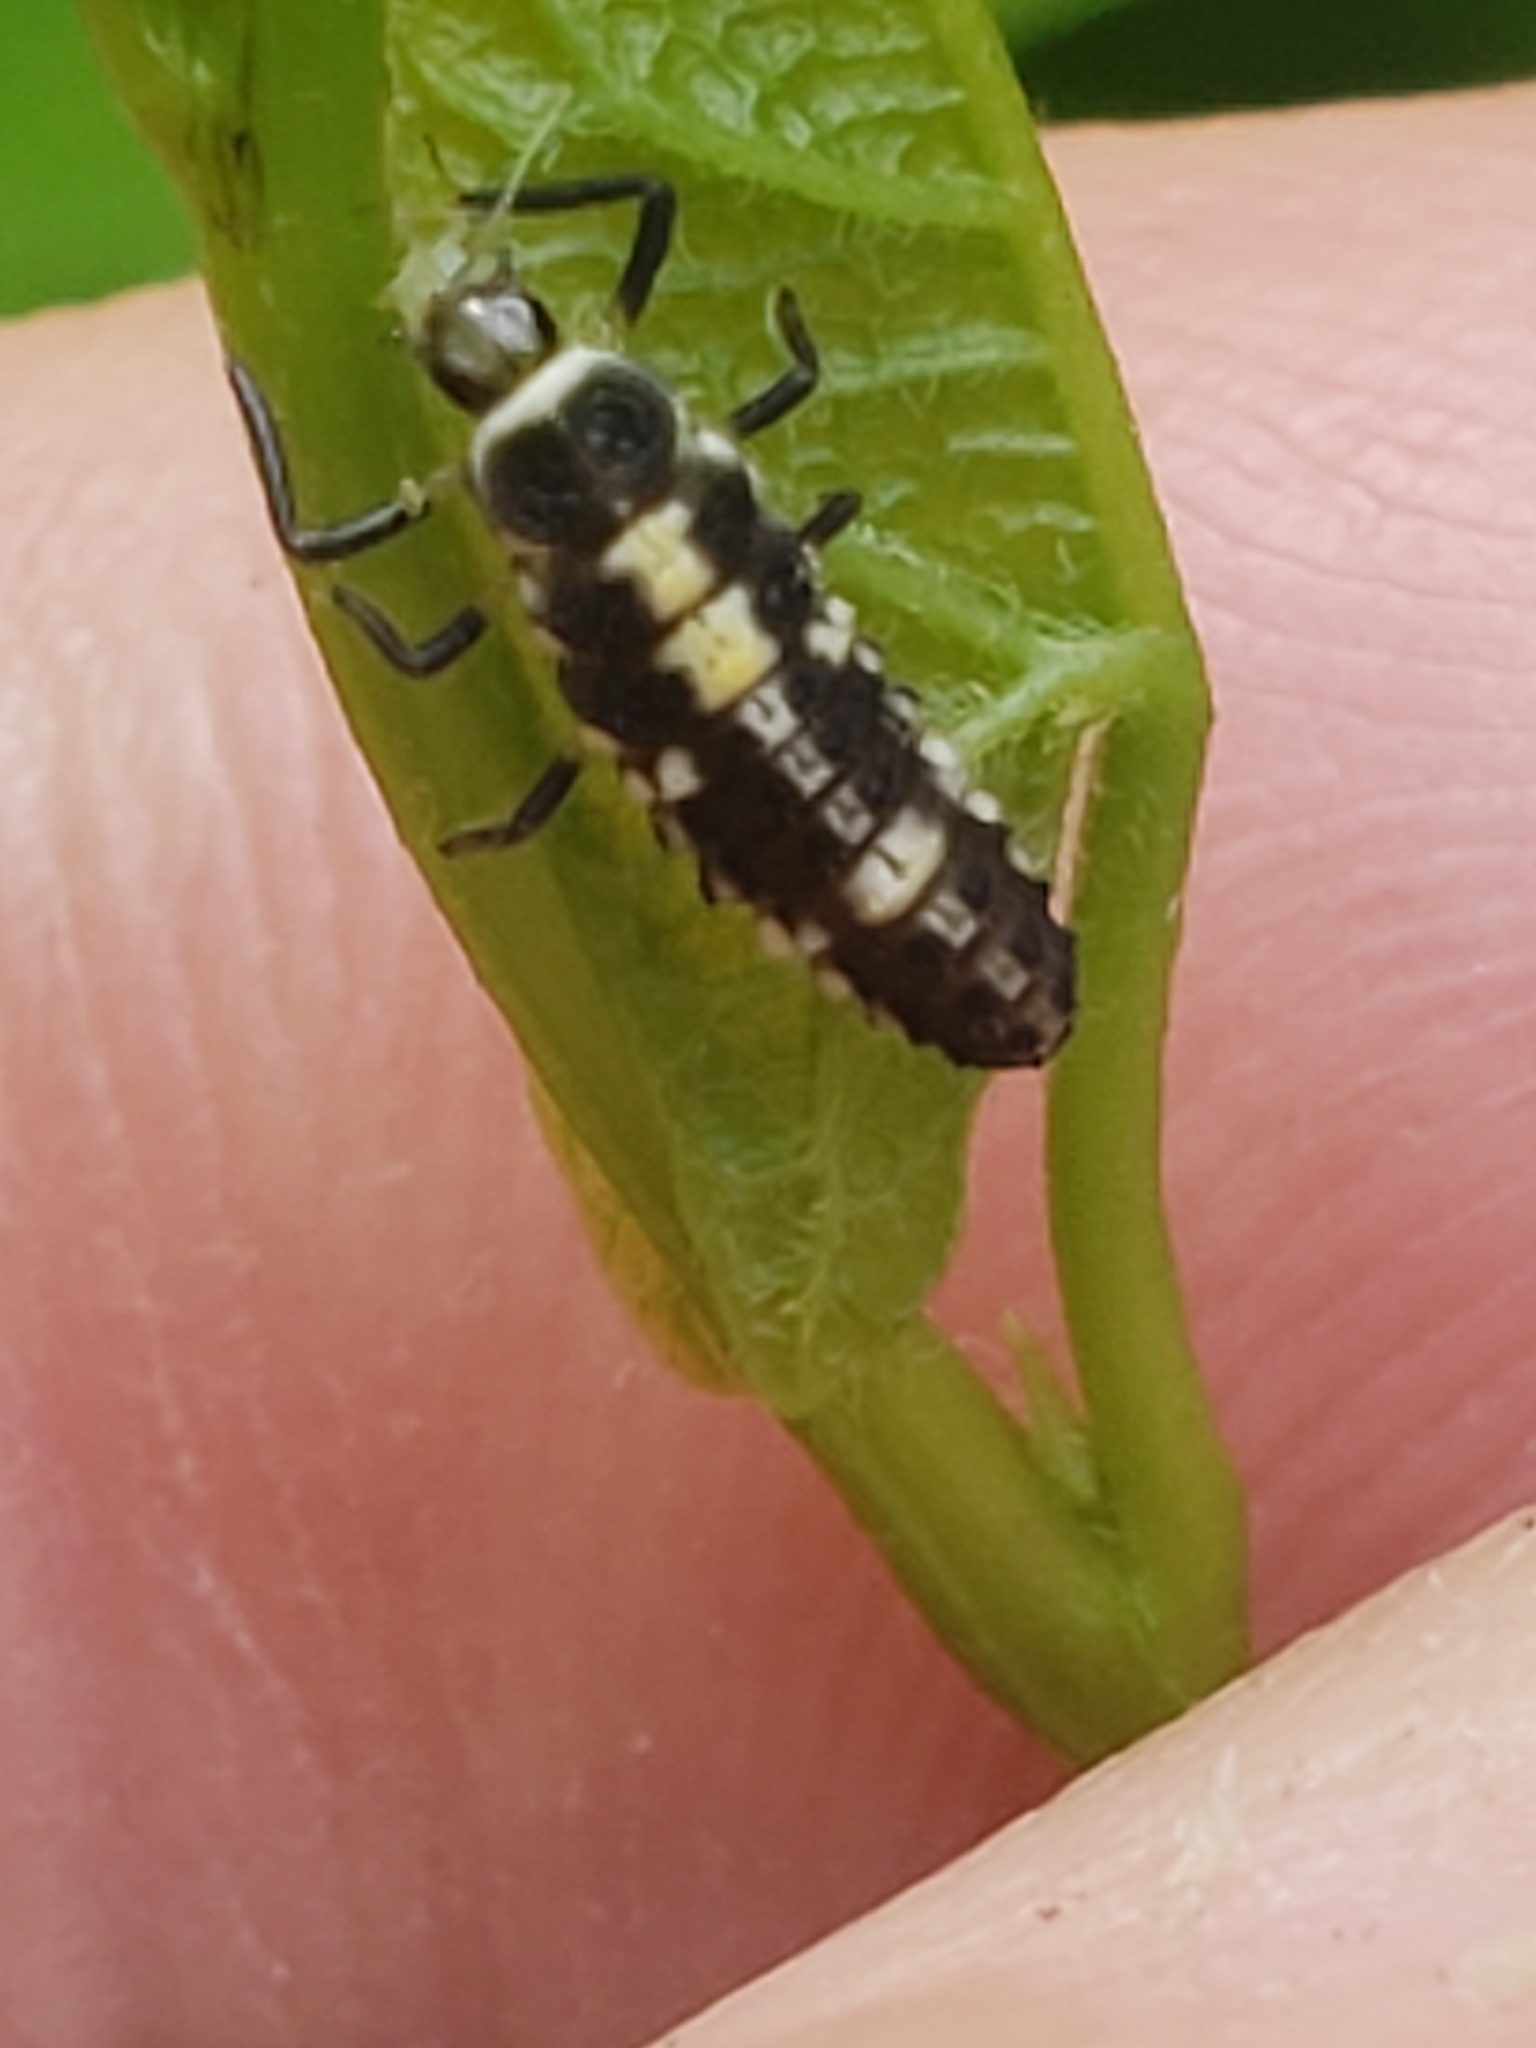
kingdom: Animalia
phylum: Arthropoda
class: Insecta
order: Coleoptera
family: Coccinellidae
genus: Propylaea
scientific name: Propylaea quatuordecimpunctata
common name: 14-spotted ladybird beetle
